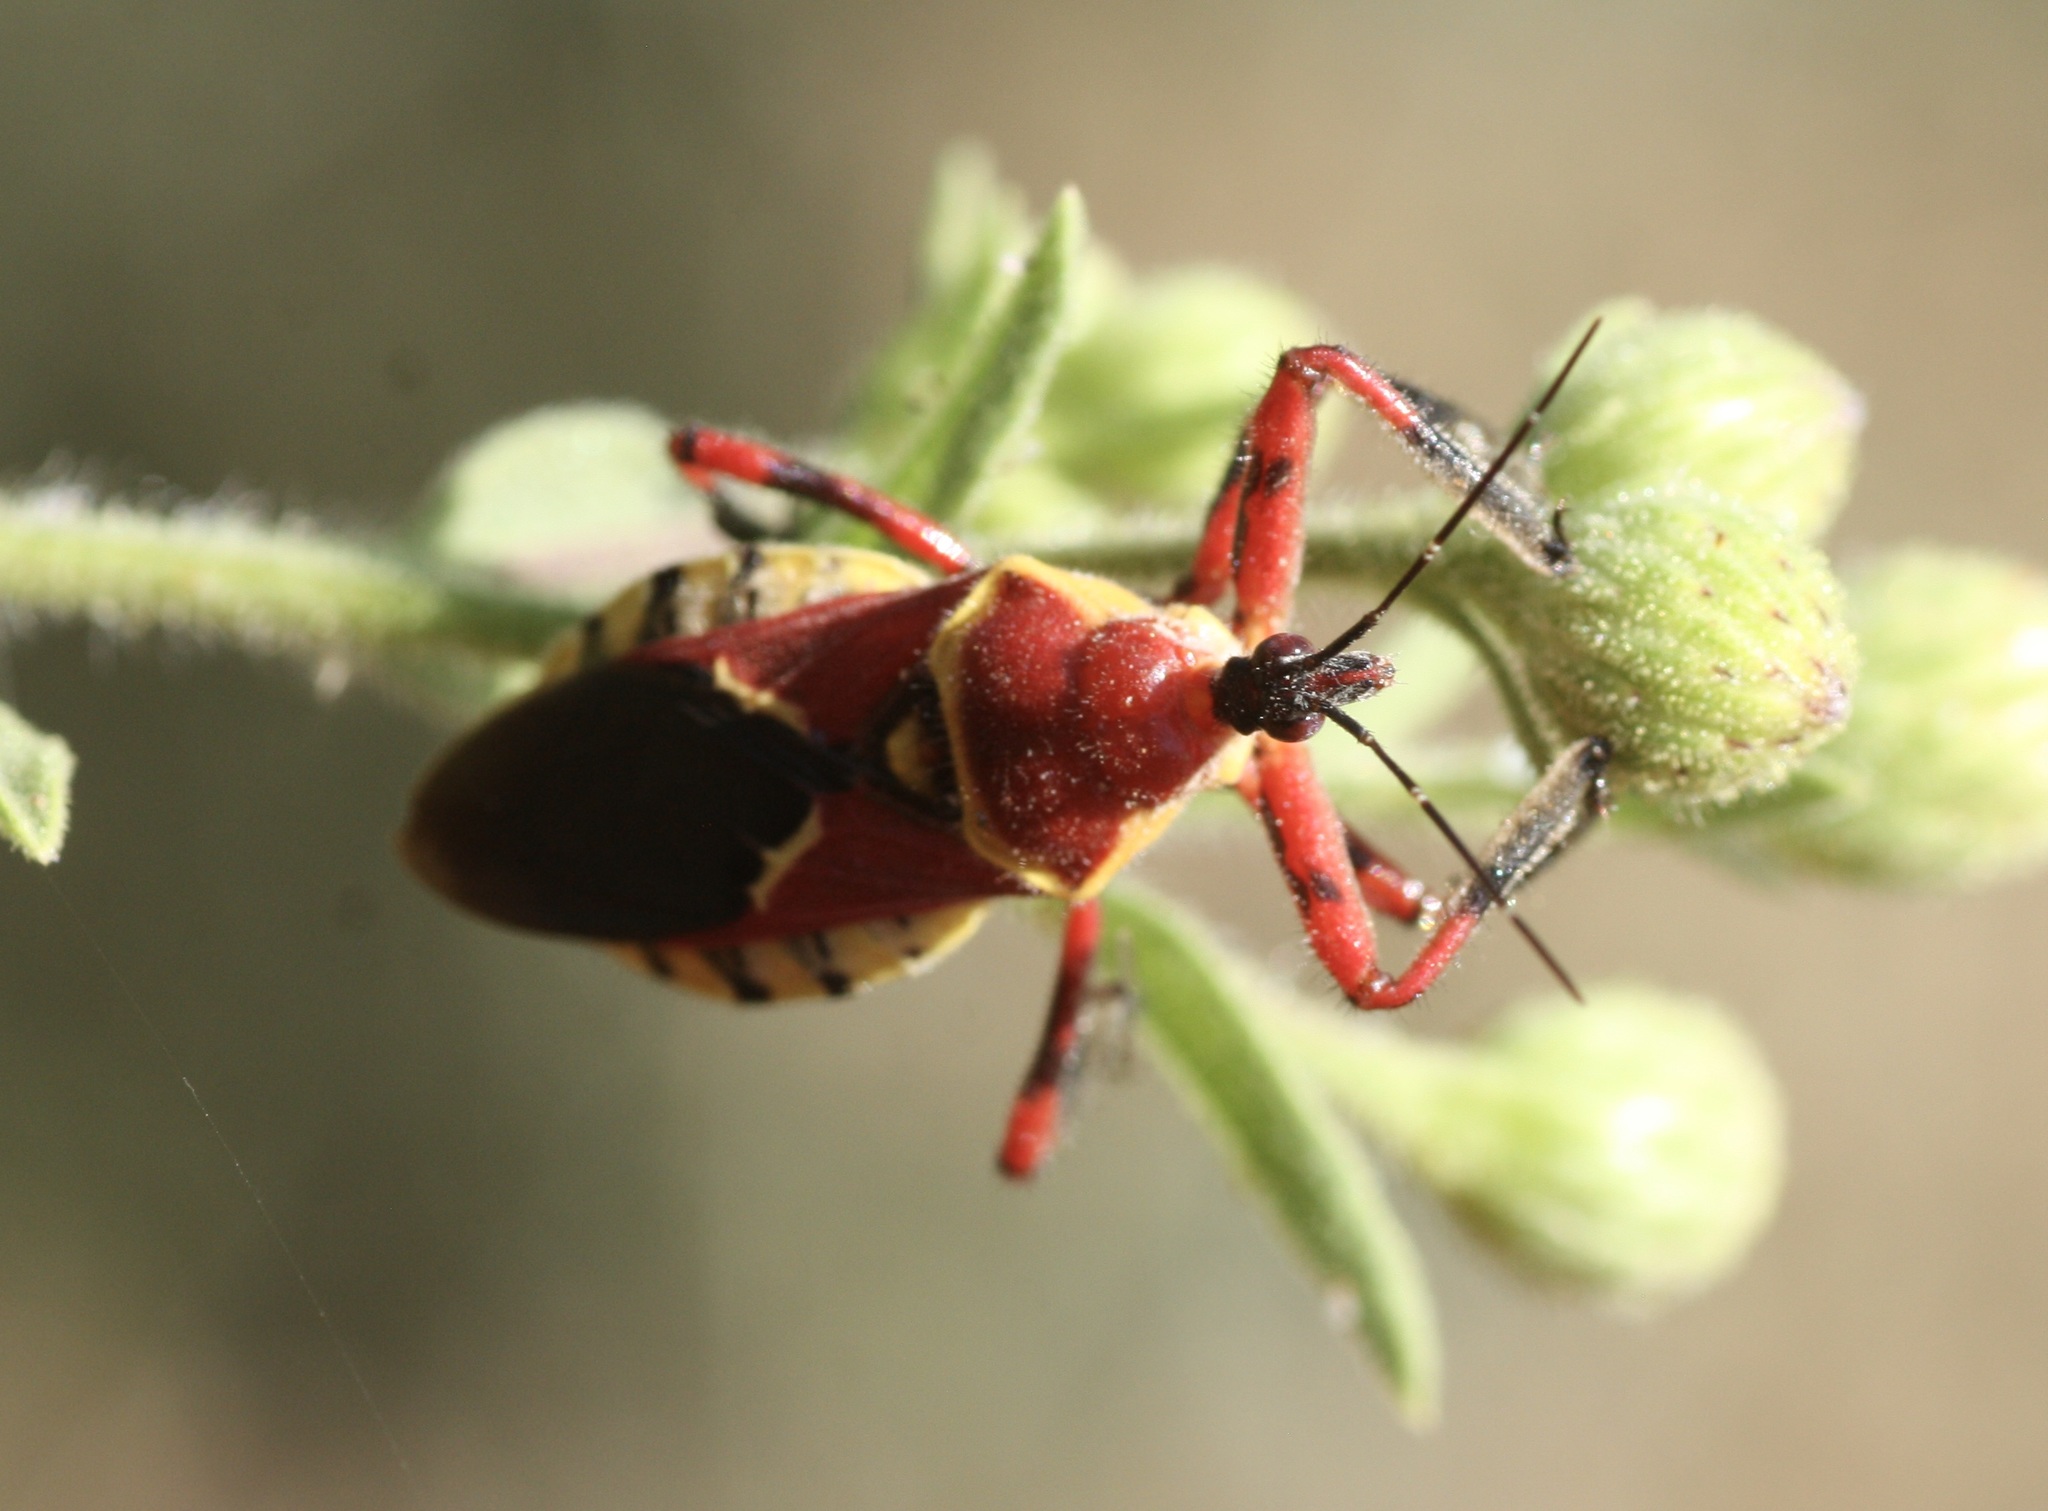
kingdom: Animalia
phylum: Arthropoda
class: Insecta
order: Hemiptera
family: Reduviidae
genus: Apiomerus
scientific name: Apiomerus flaviventris
